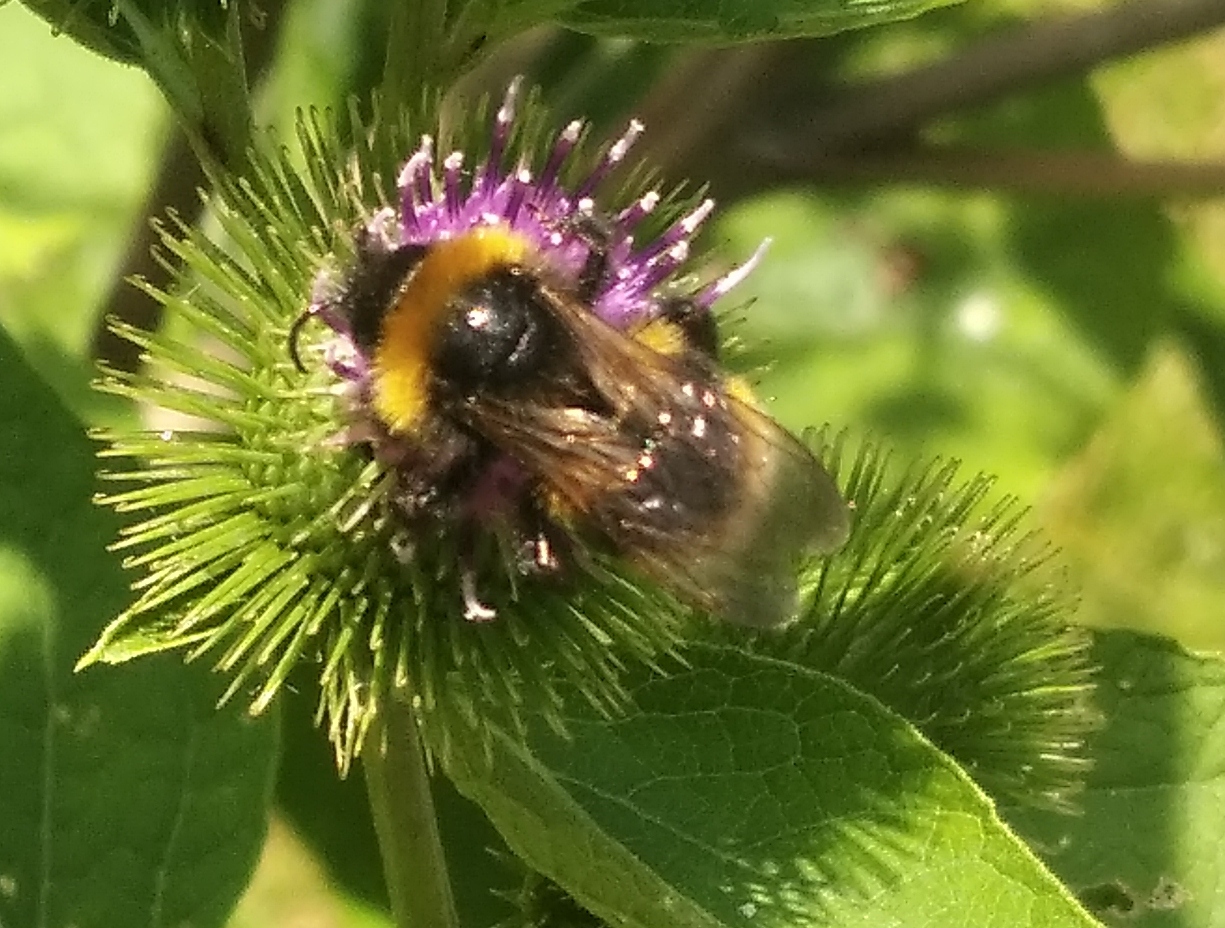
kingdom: Animalia
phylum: Arthropoda
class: Insecta
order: Hymenoptera
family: Apidae
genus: Bombus
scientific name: Bombus vestalis
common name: Vestal cuckoo bee
